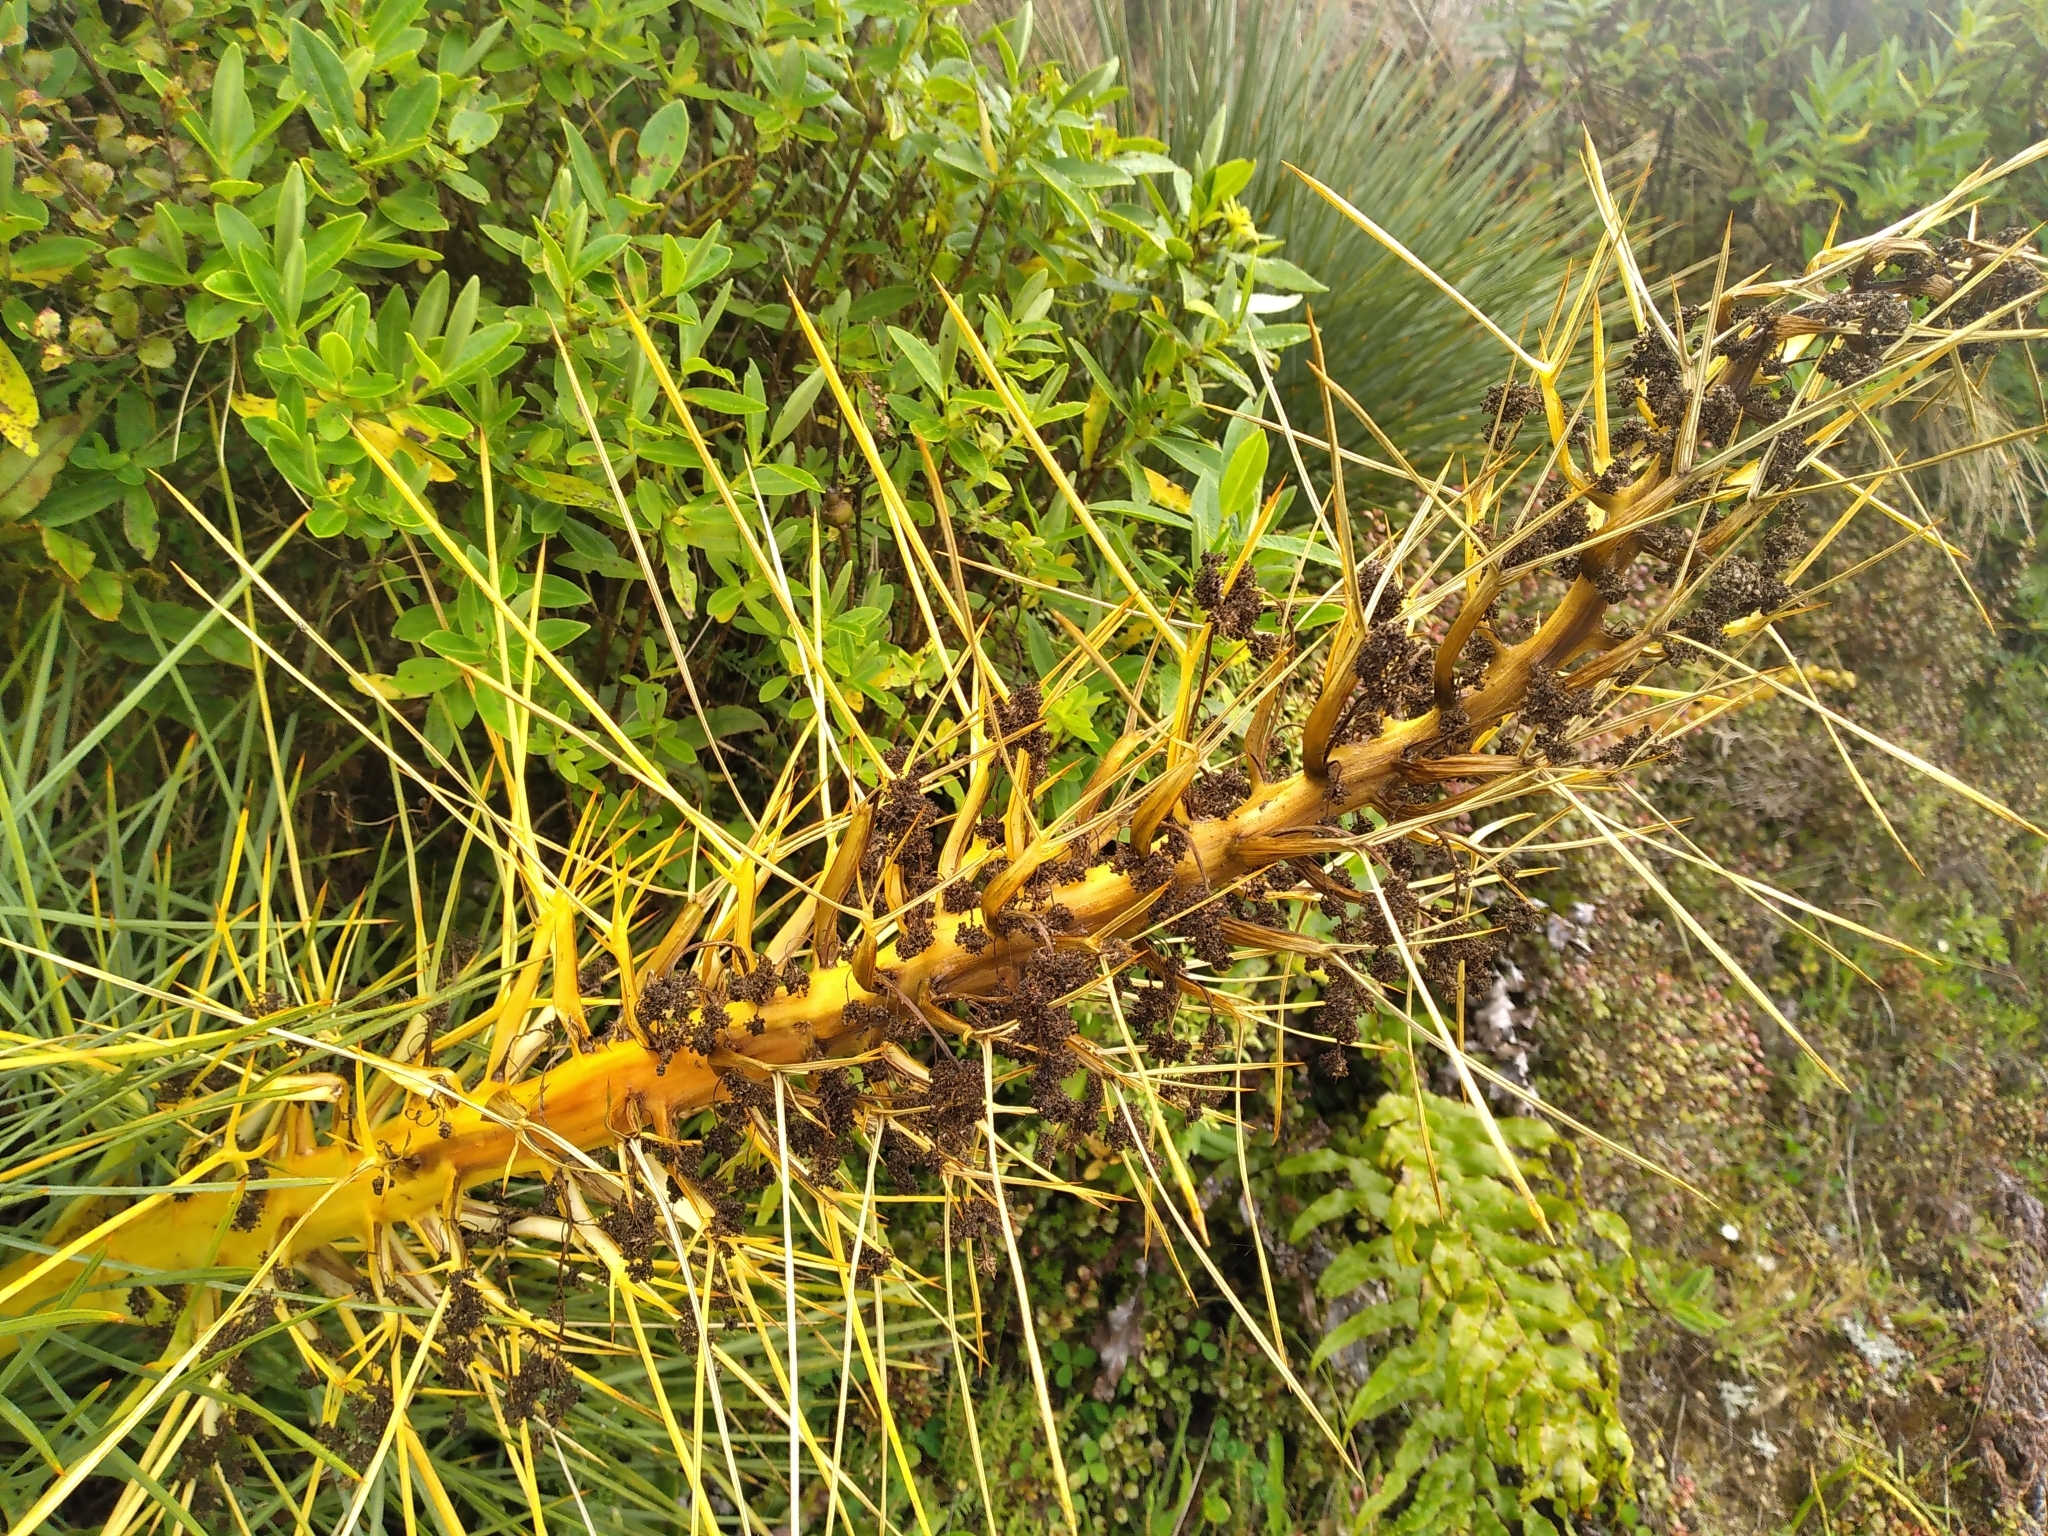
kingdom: Plantae
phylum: Tracheophyta
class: Magnoliopsida
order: Apiales
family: Apiaceae
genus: Aciphylla
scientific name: Aciphylla squarrosa
